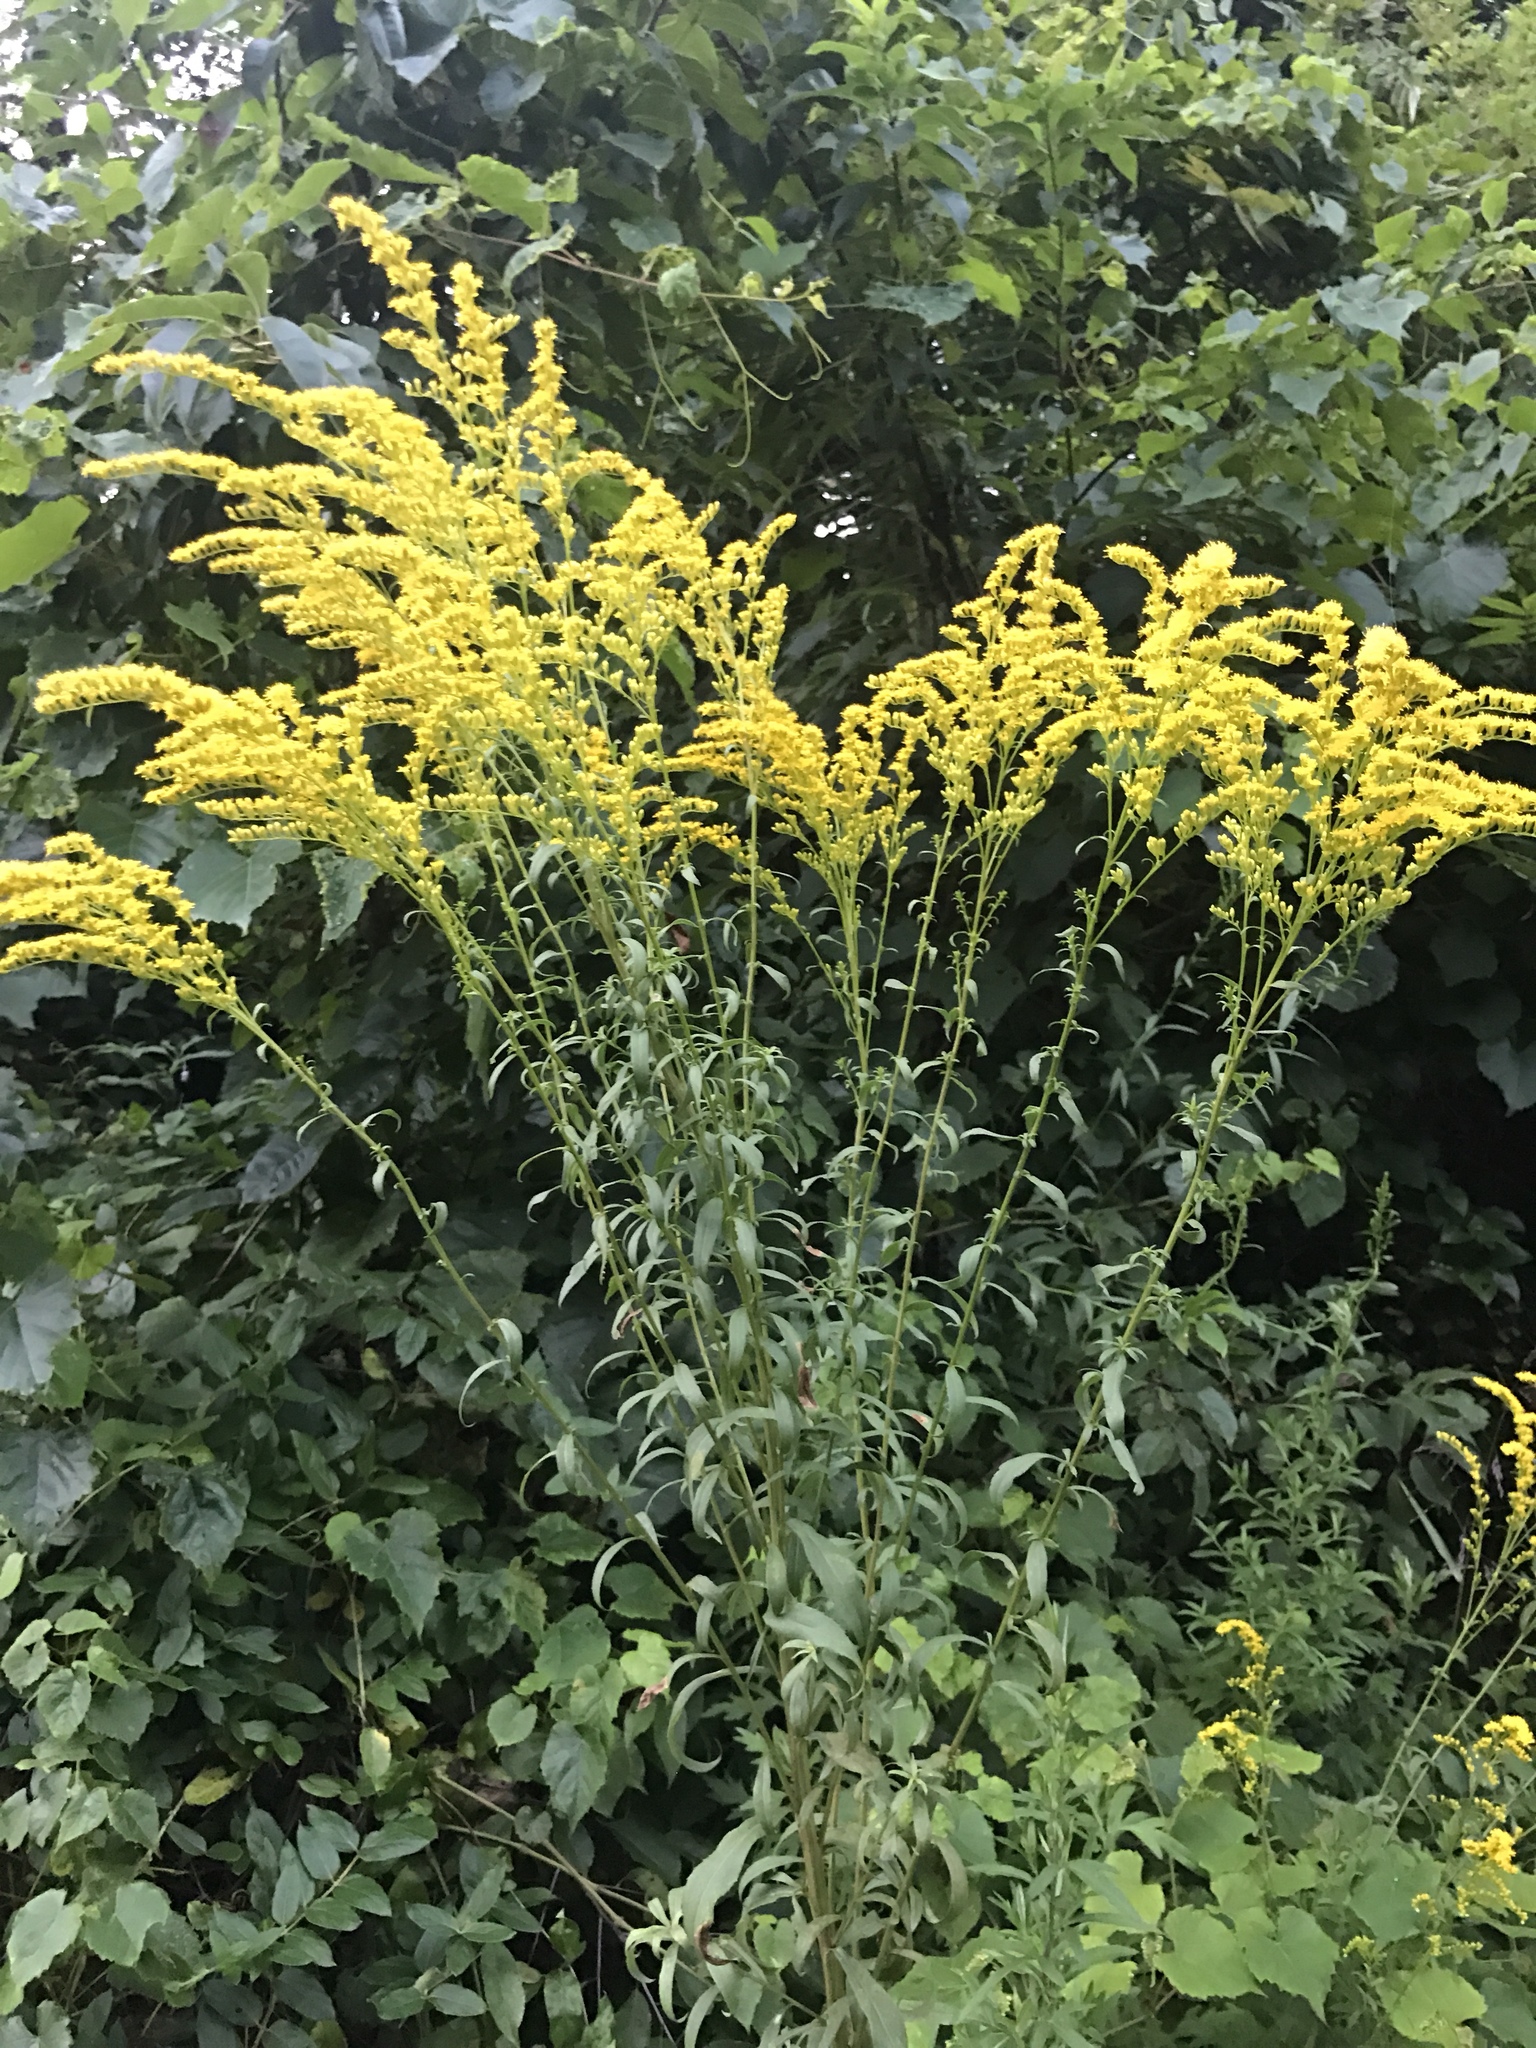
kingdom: Plantae
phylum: Tracheophyta
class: Magnoliopsida
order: Asterales
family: Asteraceae
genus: Solidago
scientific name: Solidago canadensis
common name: Canada goldenrod
